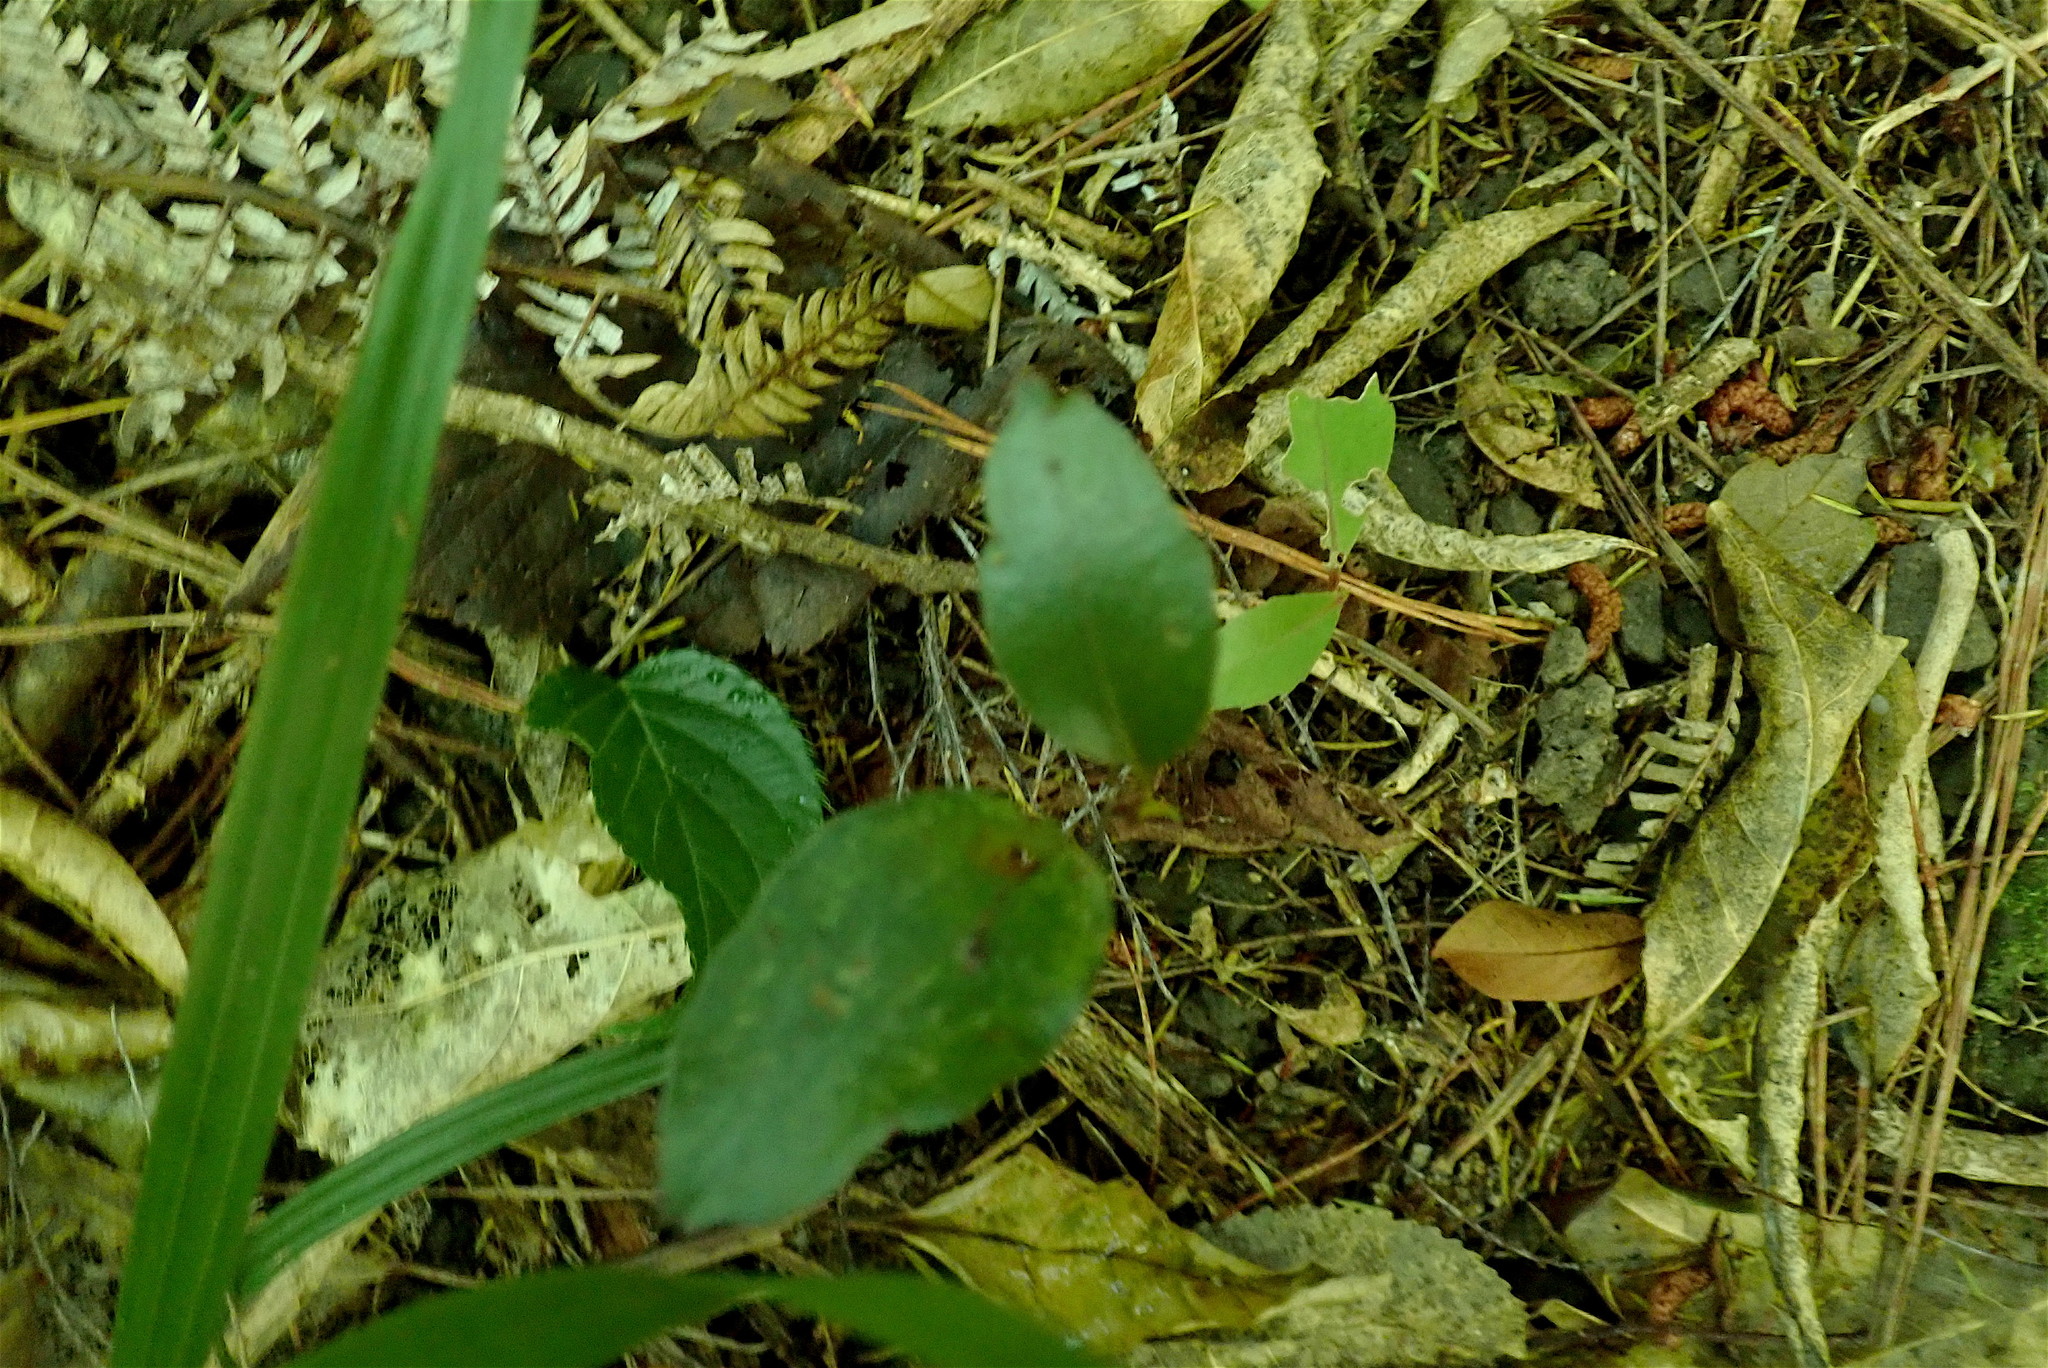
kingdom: Plantae
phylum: Tracheophyta
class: Liliopsida
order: Liliales
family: Ripogonaceae
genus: Ripogonum
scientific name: Ripogonum scandens
